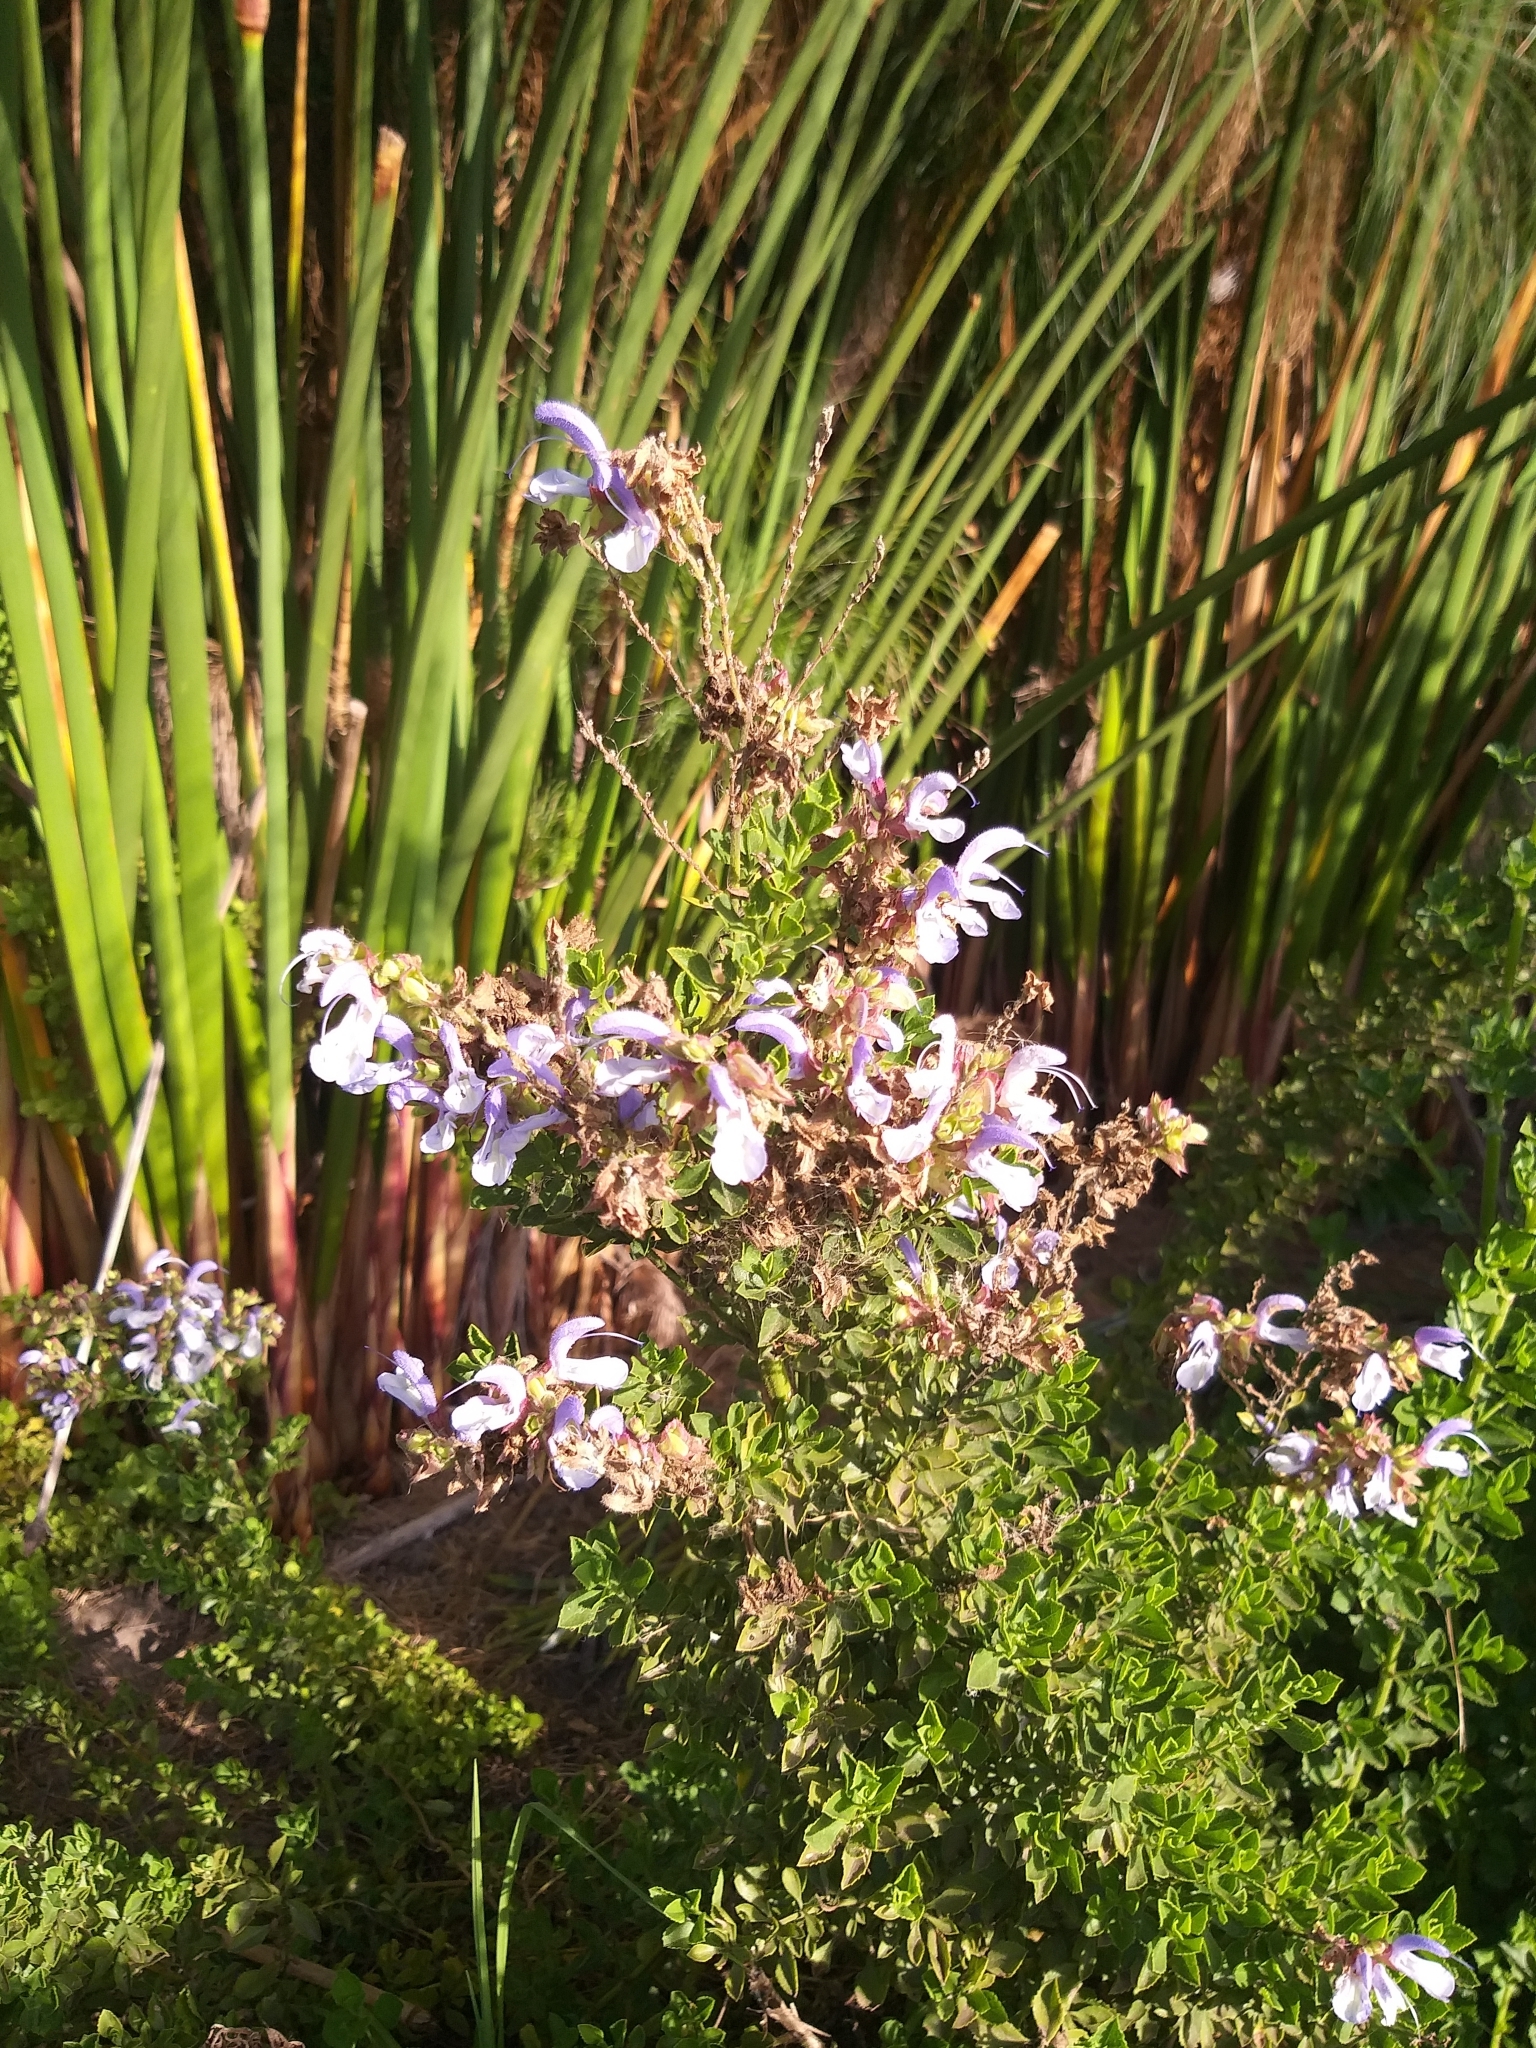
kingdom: Plantae
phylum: Tracheophyta
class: Magnoliopsida
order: Lamiales
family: Lamiaceae
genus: Salvia
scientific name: Salvia chamelaeagnea
